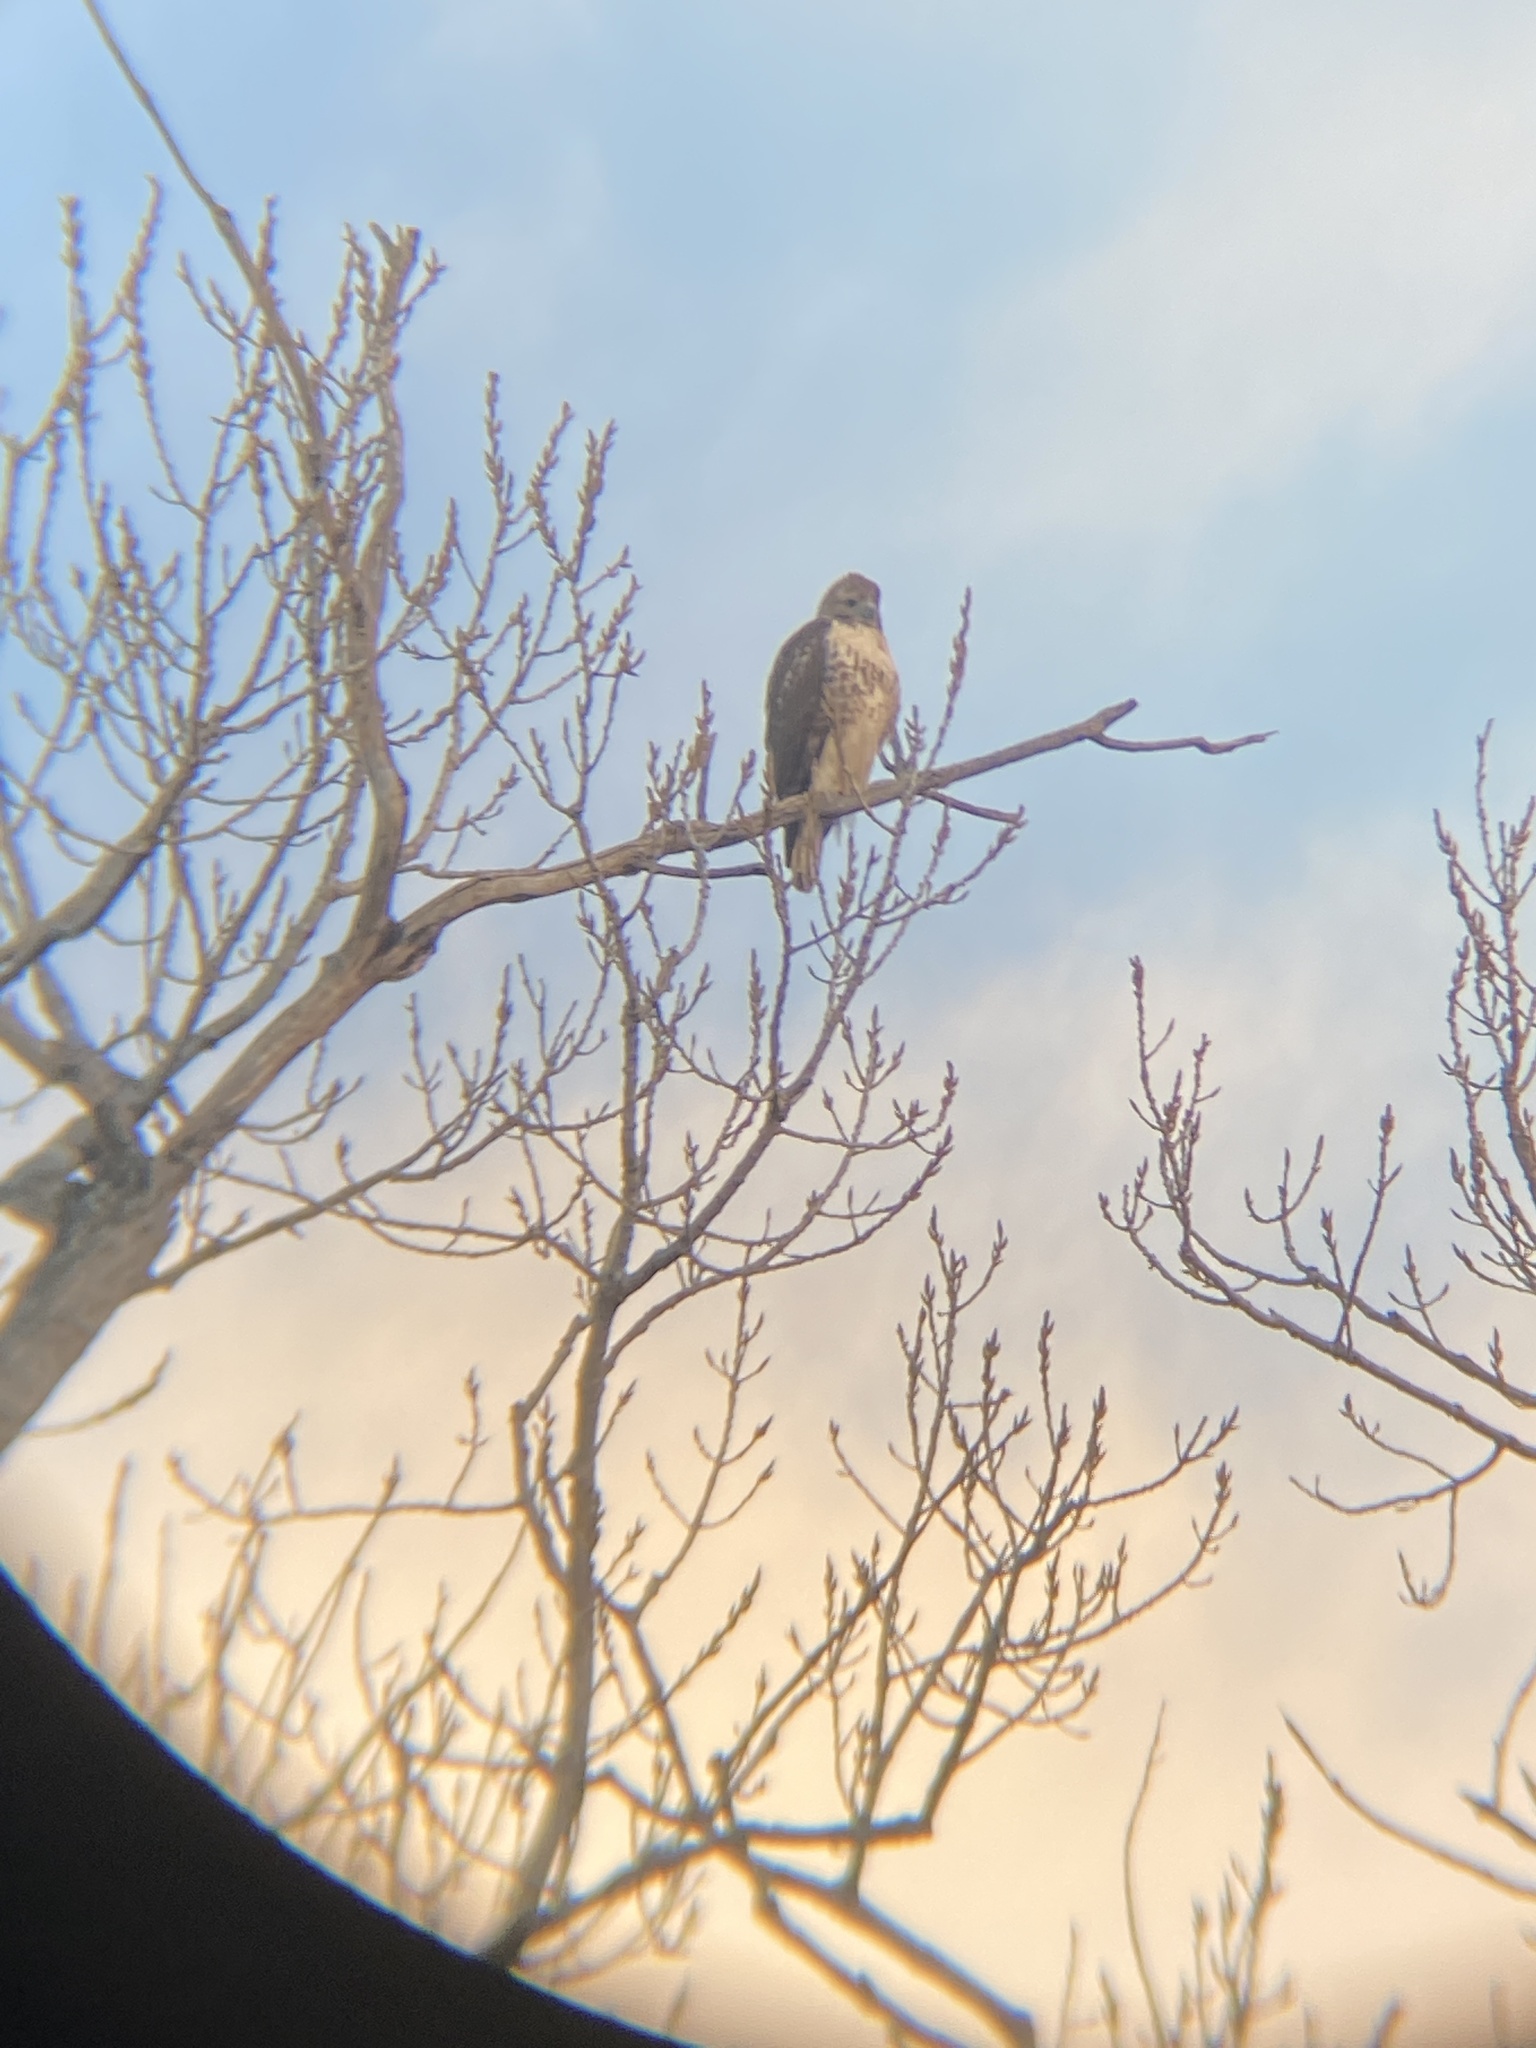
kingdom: Animalia
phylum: Chordata
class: Aves
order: Accipitriformes
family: Accipitridae
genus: Buteo
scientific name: Buteo jamaicensis
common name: Red-tailed hawk
